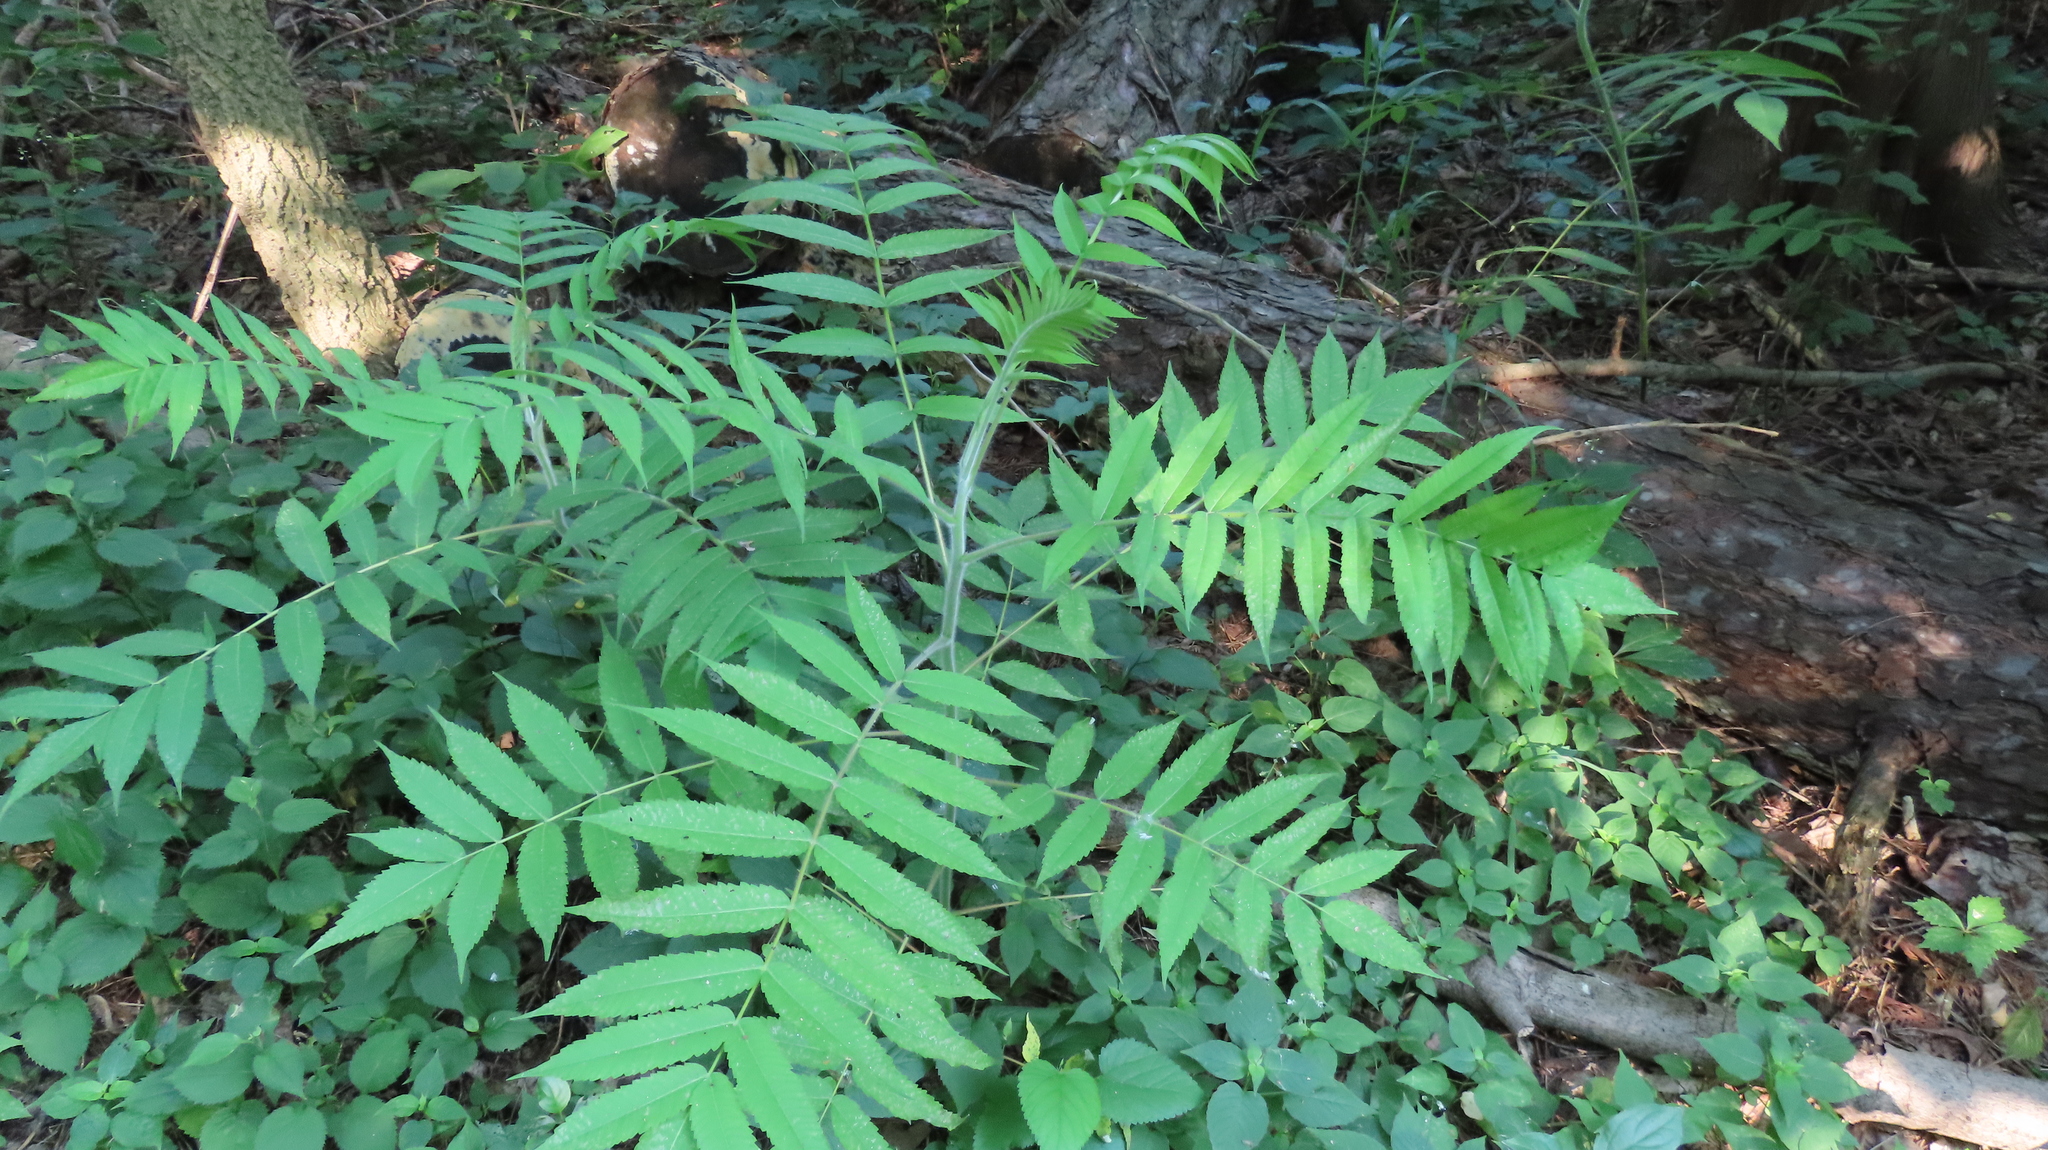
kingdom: Plantae
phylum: Tracheophyta
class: Magnoliopsida
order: Sapindales
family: Anacardiaceae
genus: Rhus
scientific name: Rhus typhina
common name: Staghorn sumac
